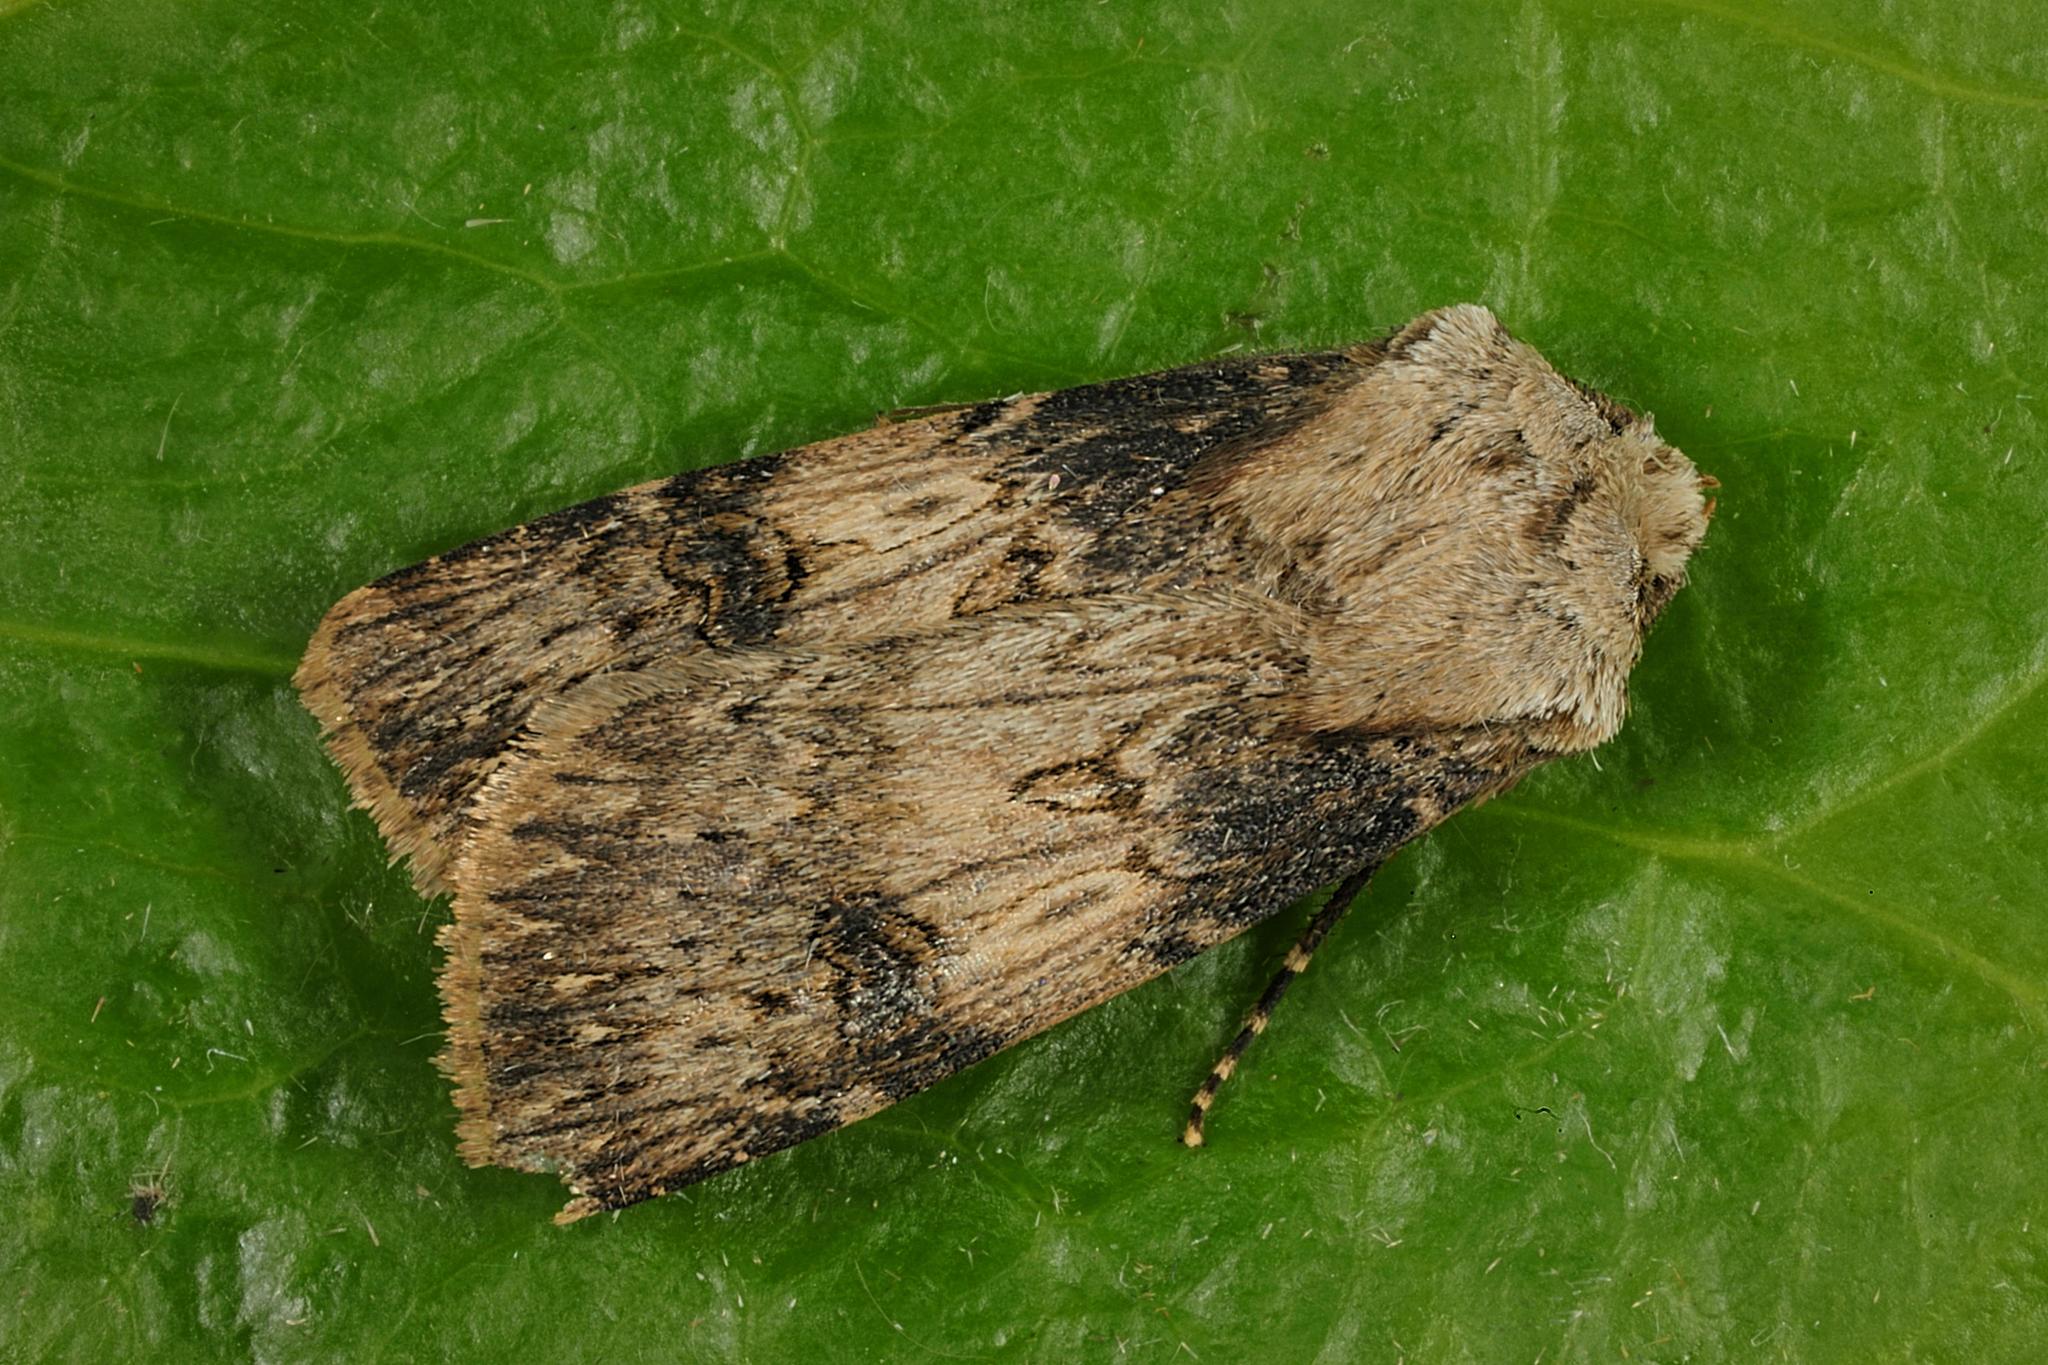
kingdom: Animalia
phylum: Arthropoda
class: Insecta
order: Lepidoptera
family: Noctuidae
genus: Agrotis
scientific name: Agrotis puta
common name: Shuttle-shaped dart
